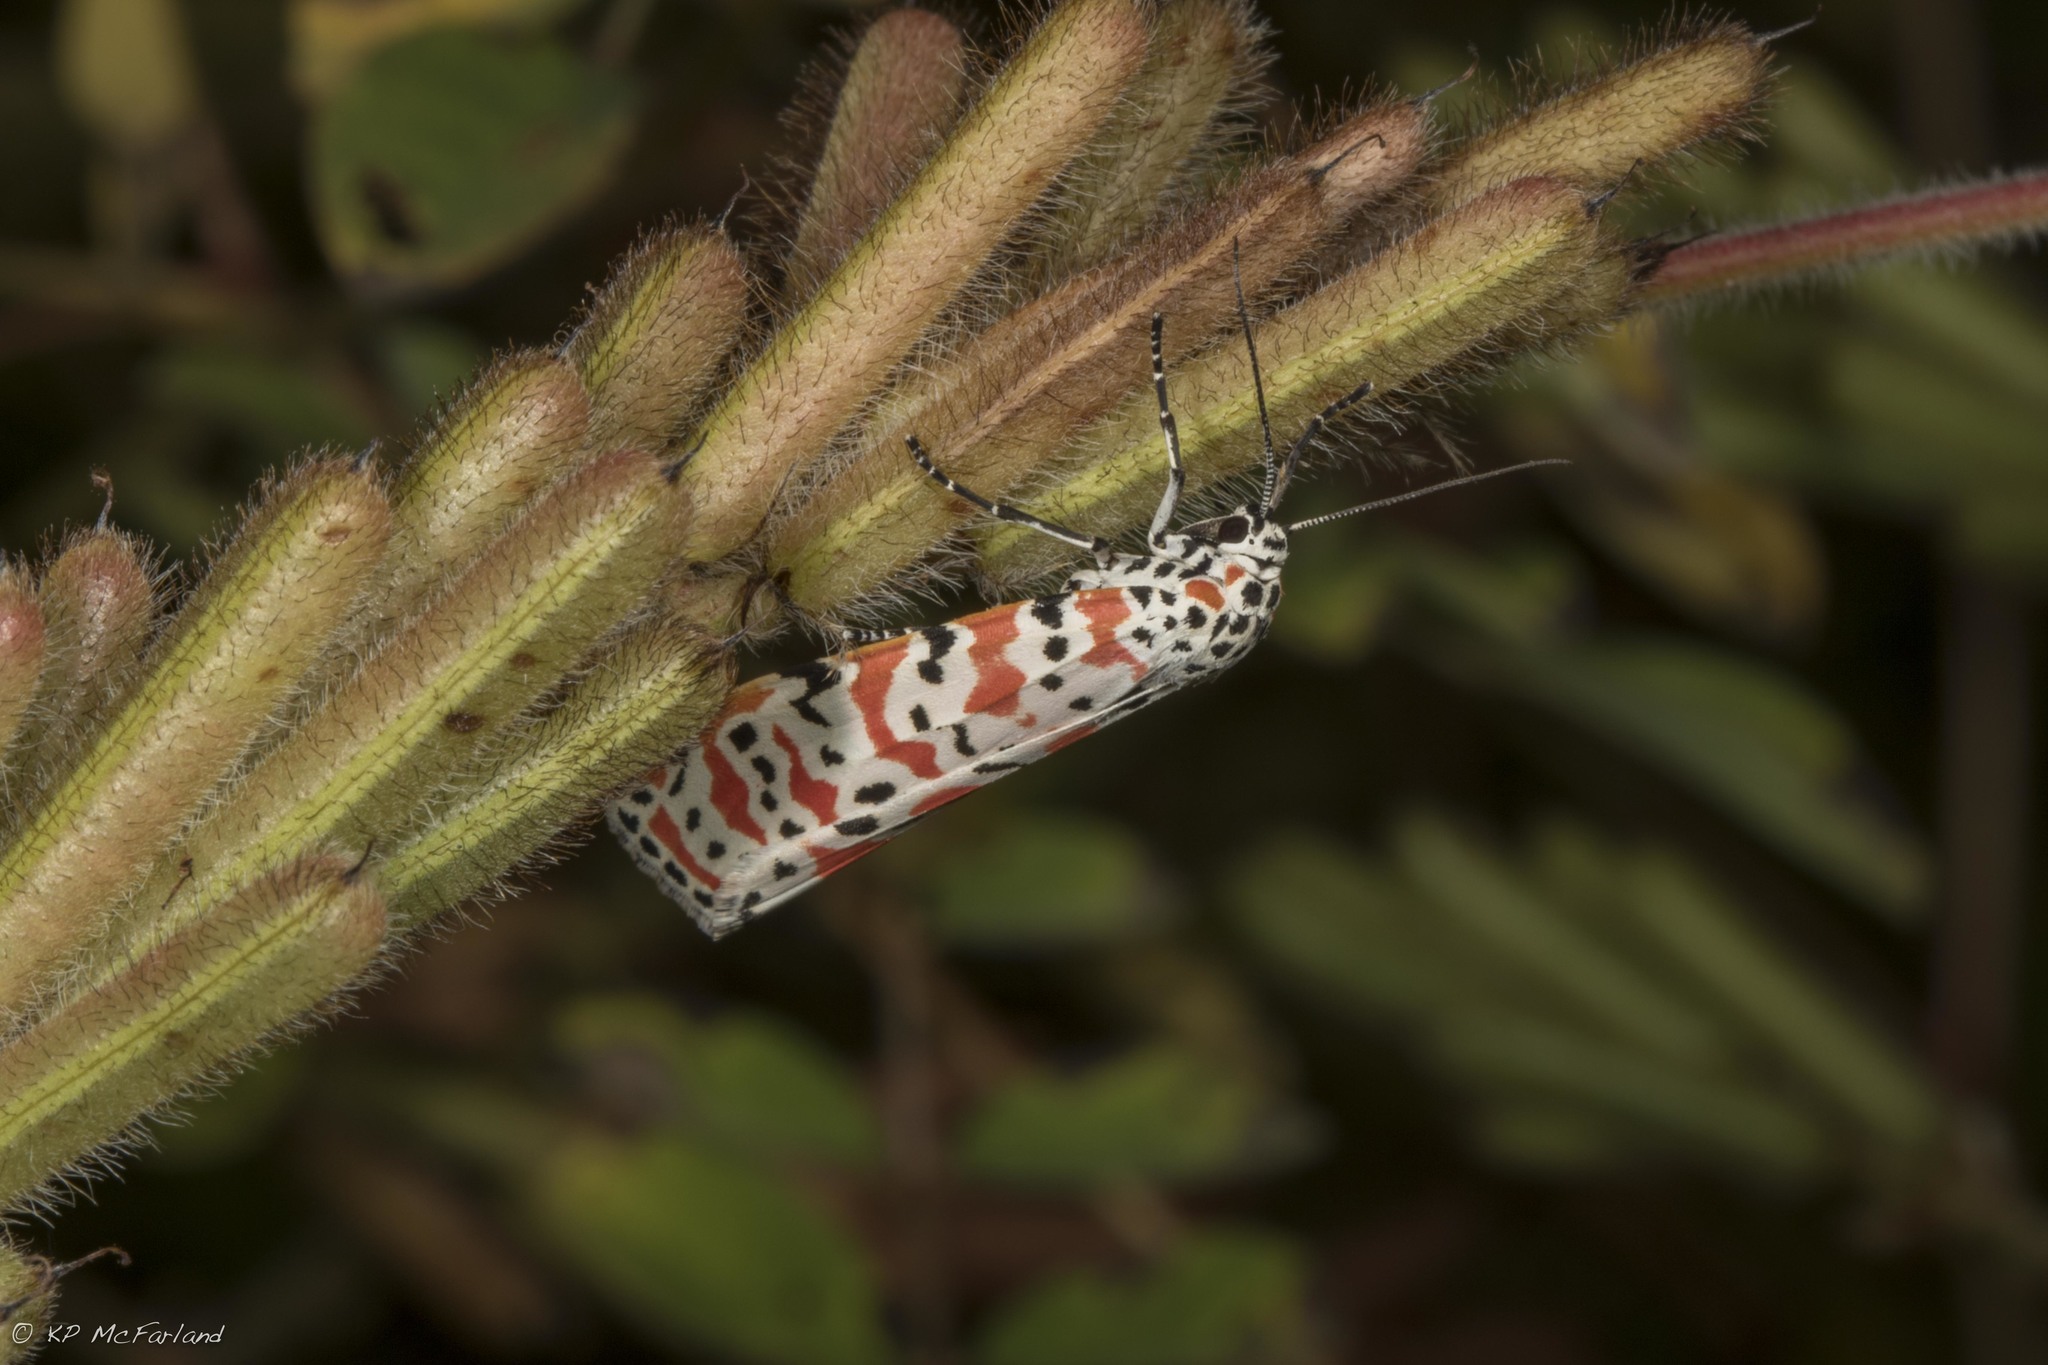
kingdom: Animalia
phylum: Arthropoda
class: Insecta
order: Lepidoptera
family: Erebidae
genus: Utetheisa
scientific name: Utetheisa ornatrix
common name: Beautiful utetheisa
